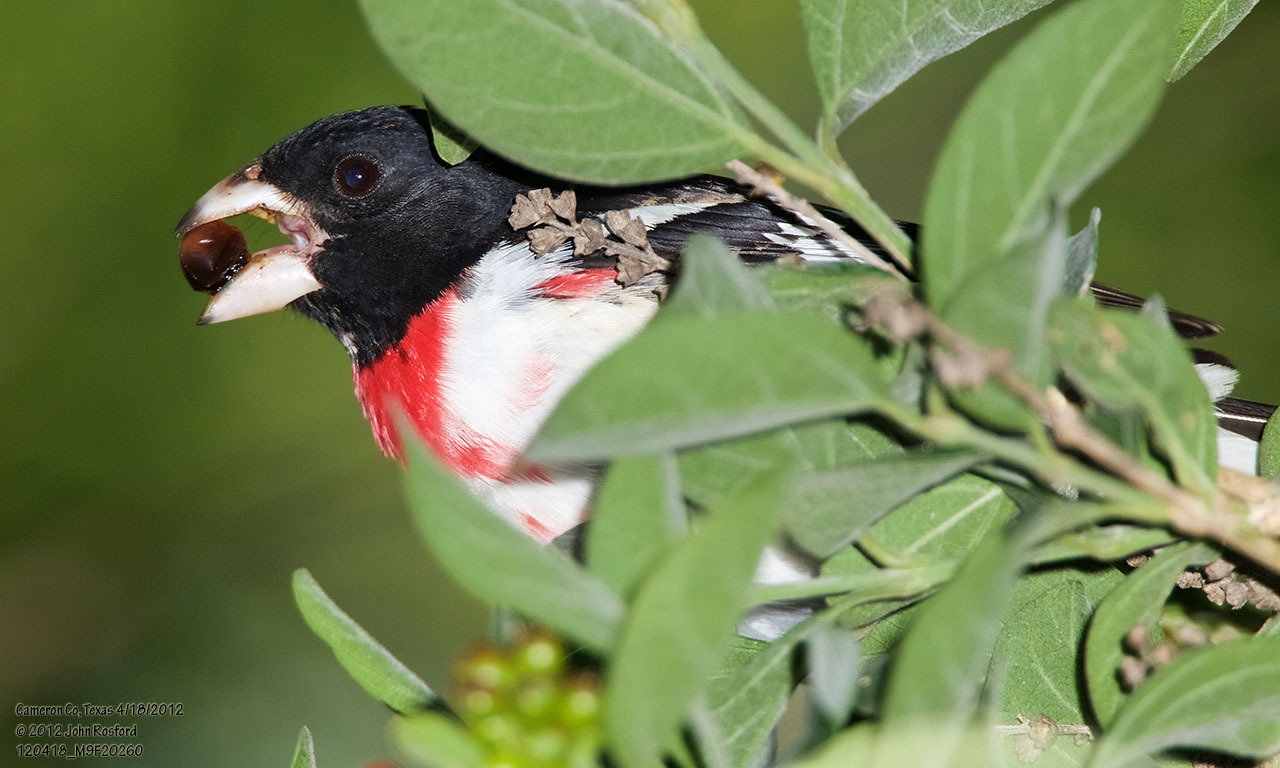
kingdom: Animalia
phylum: Chordata
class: Aves
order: Passeriformes
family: Cardinalidae
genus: Pheucticus
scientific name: Pheucticus ludovicianus
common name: Rose-breasted grosbeak
